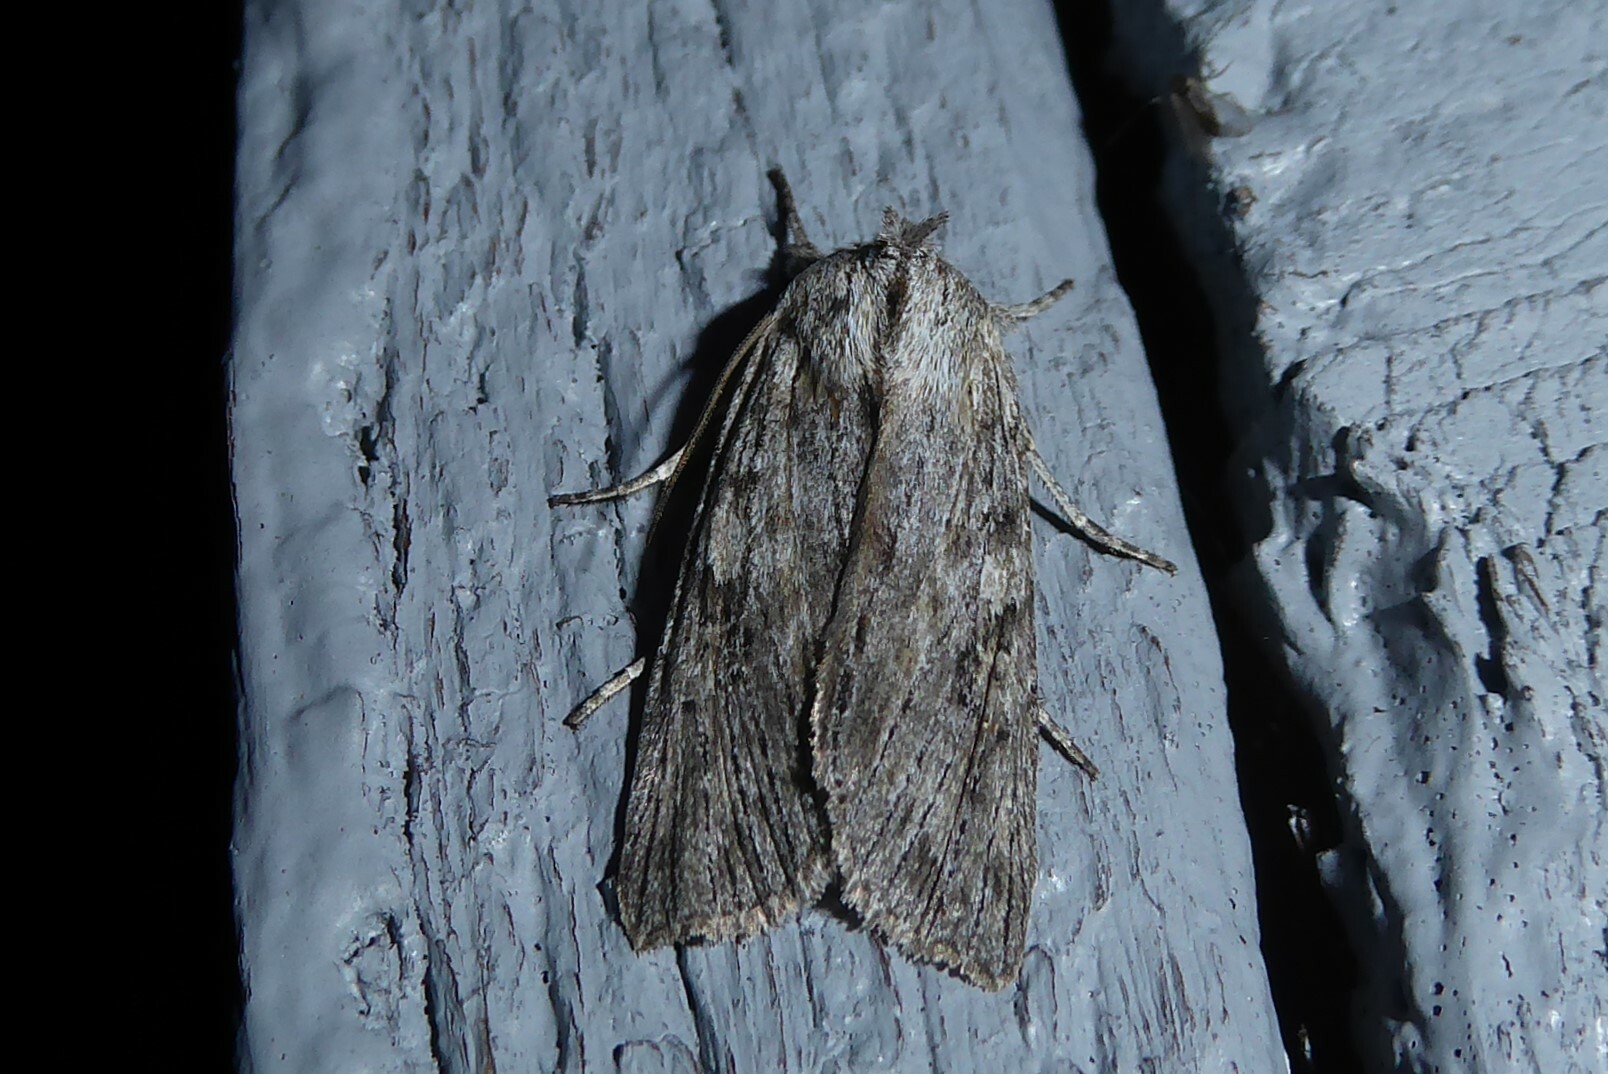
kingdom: Animalia
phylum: Arthropoda
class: Insecta
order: Lepidoptera
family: Noctuidae
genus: Physetica
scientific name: Physetica phricias
